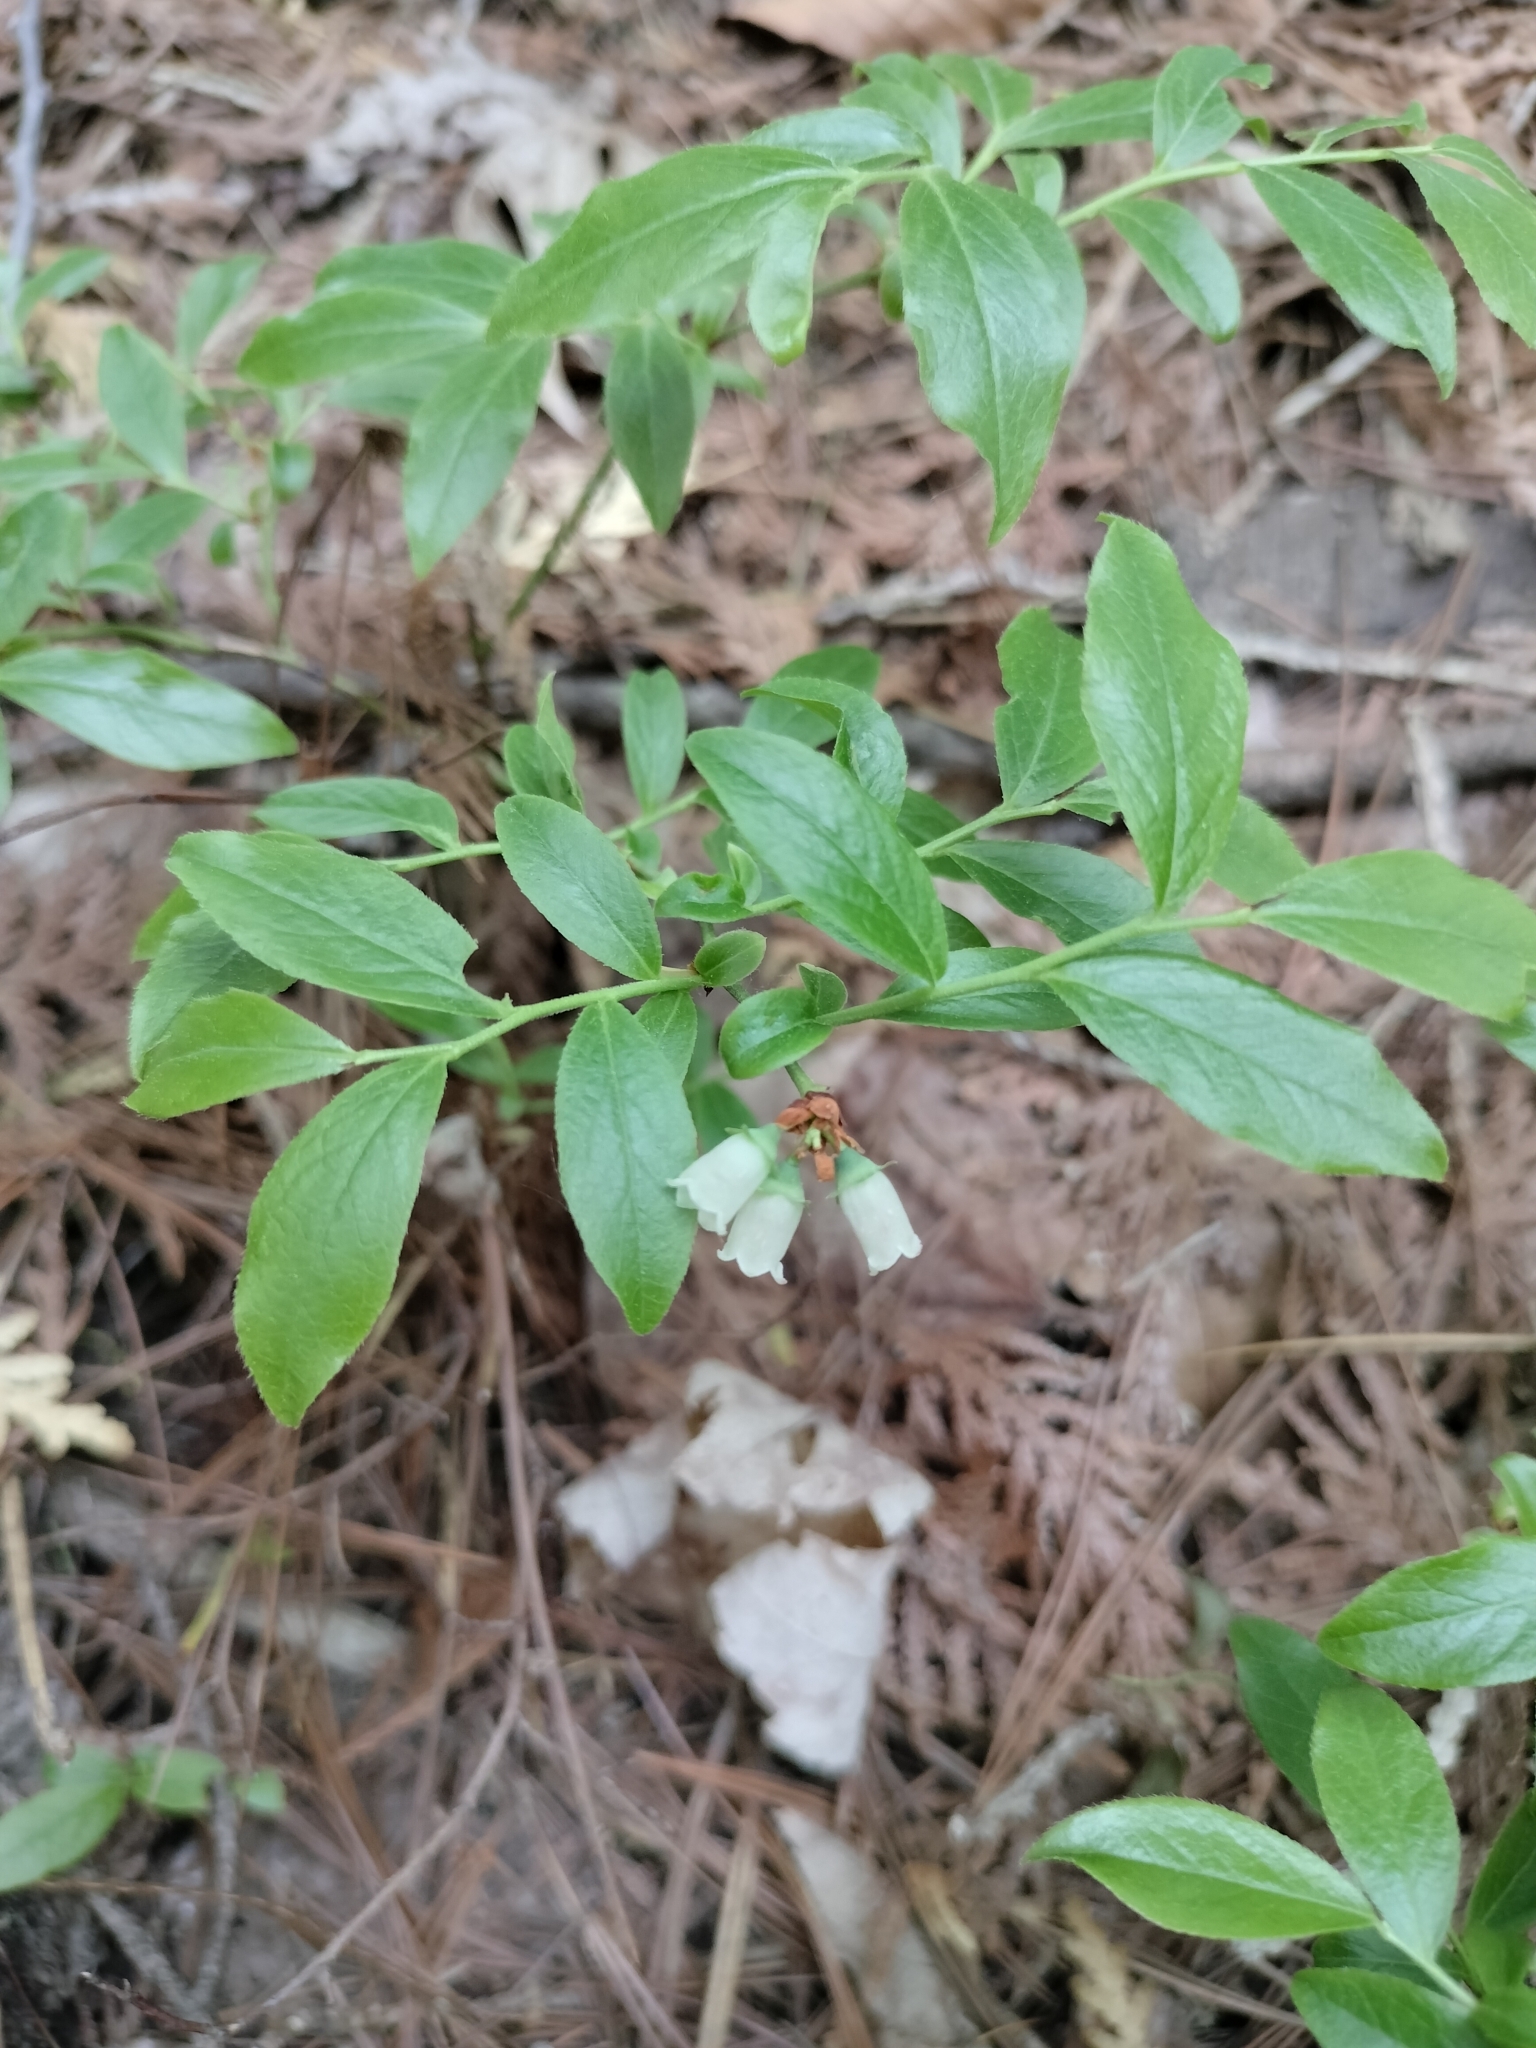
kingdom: Plantae
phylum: Tracheophyta
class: Magnoliopsida
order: Ericales
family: Ericaceae
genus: Vaccinium
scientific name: Vaccinium angustifolium
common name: Early lowbush blueberry
